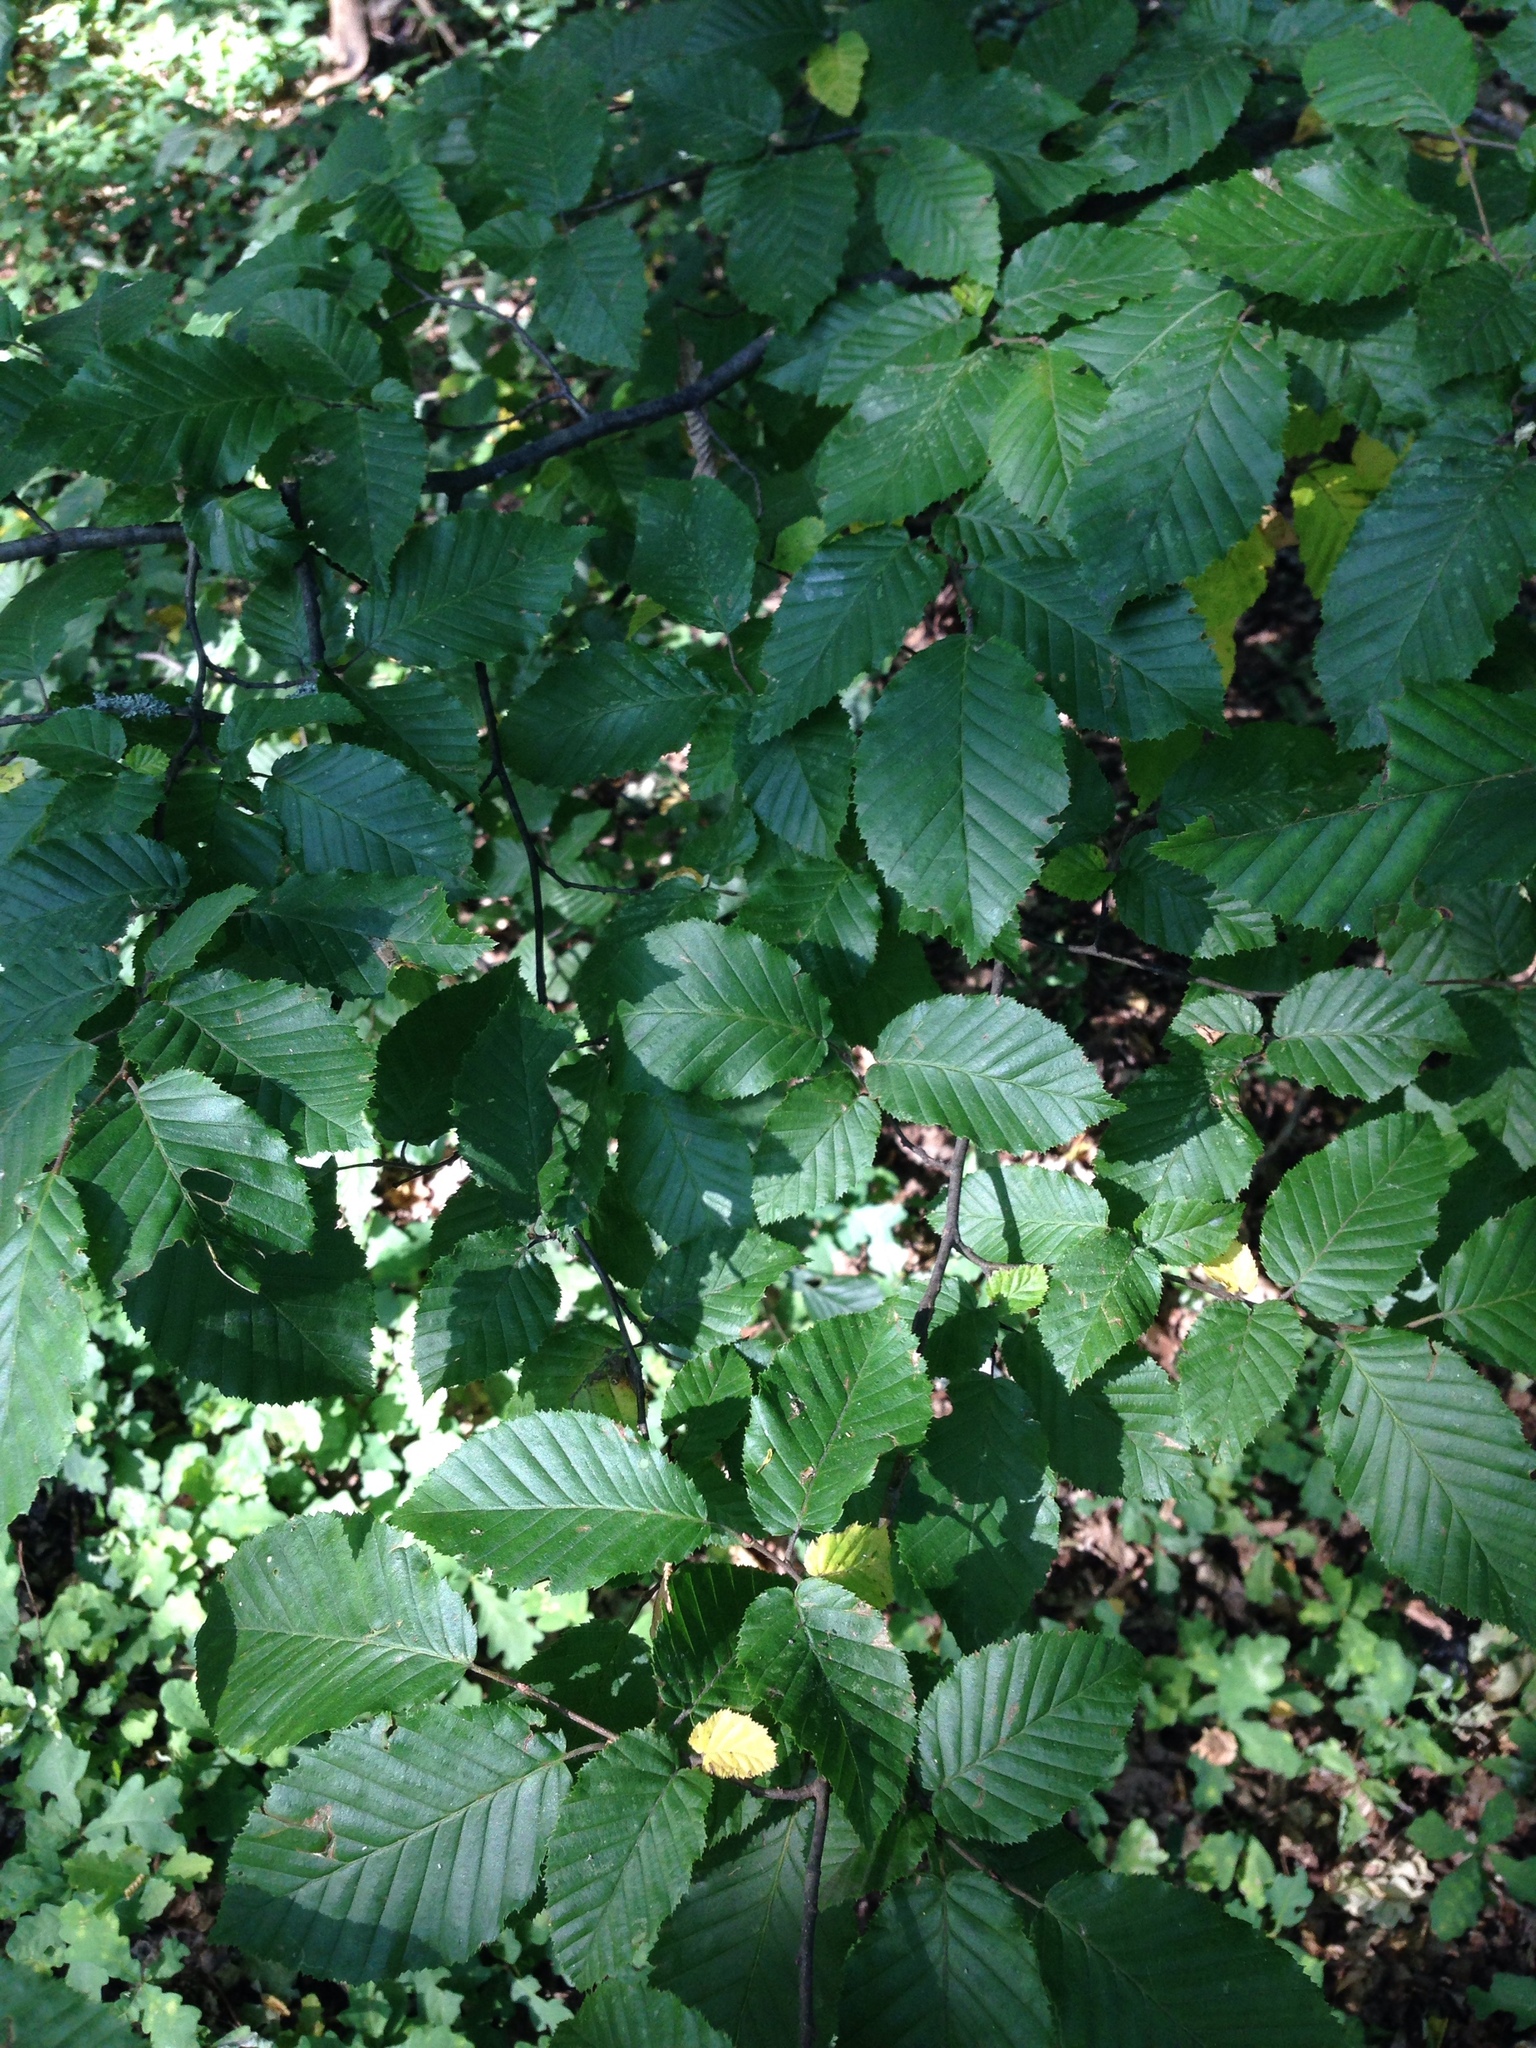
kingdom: Plantae
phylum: Tracheophyta
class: Magnoliopsida
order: Fagales
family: Betulaceae
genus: Carpinus
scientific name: Carpinus betulus
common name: Hornbeam
